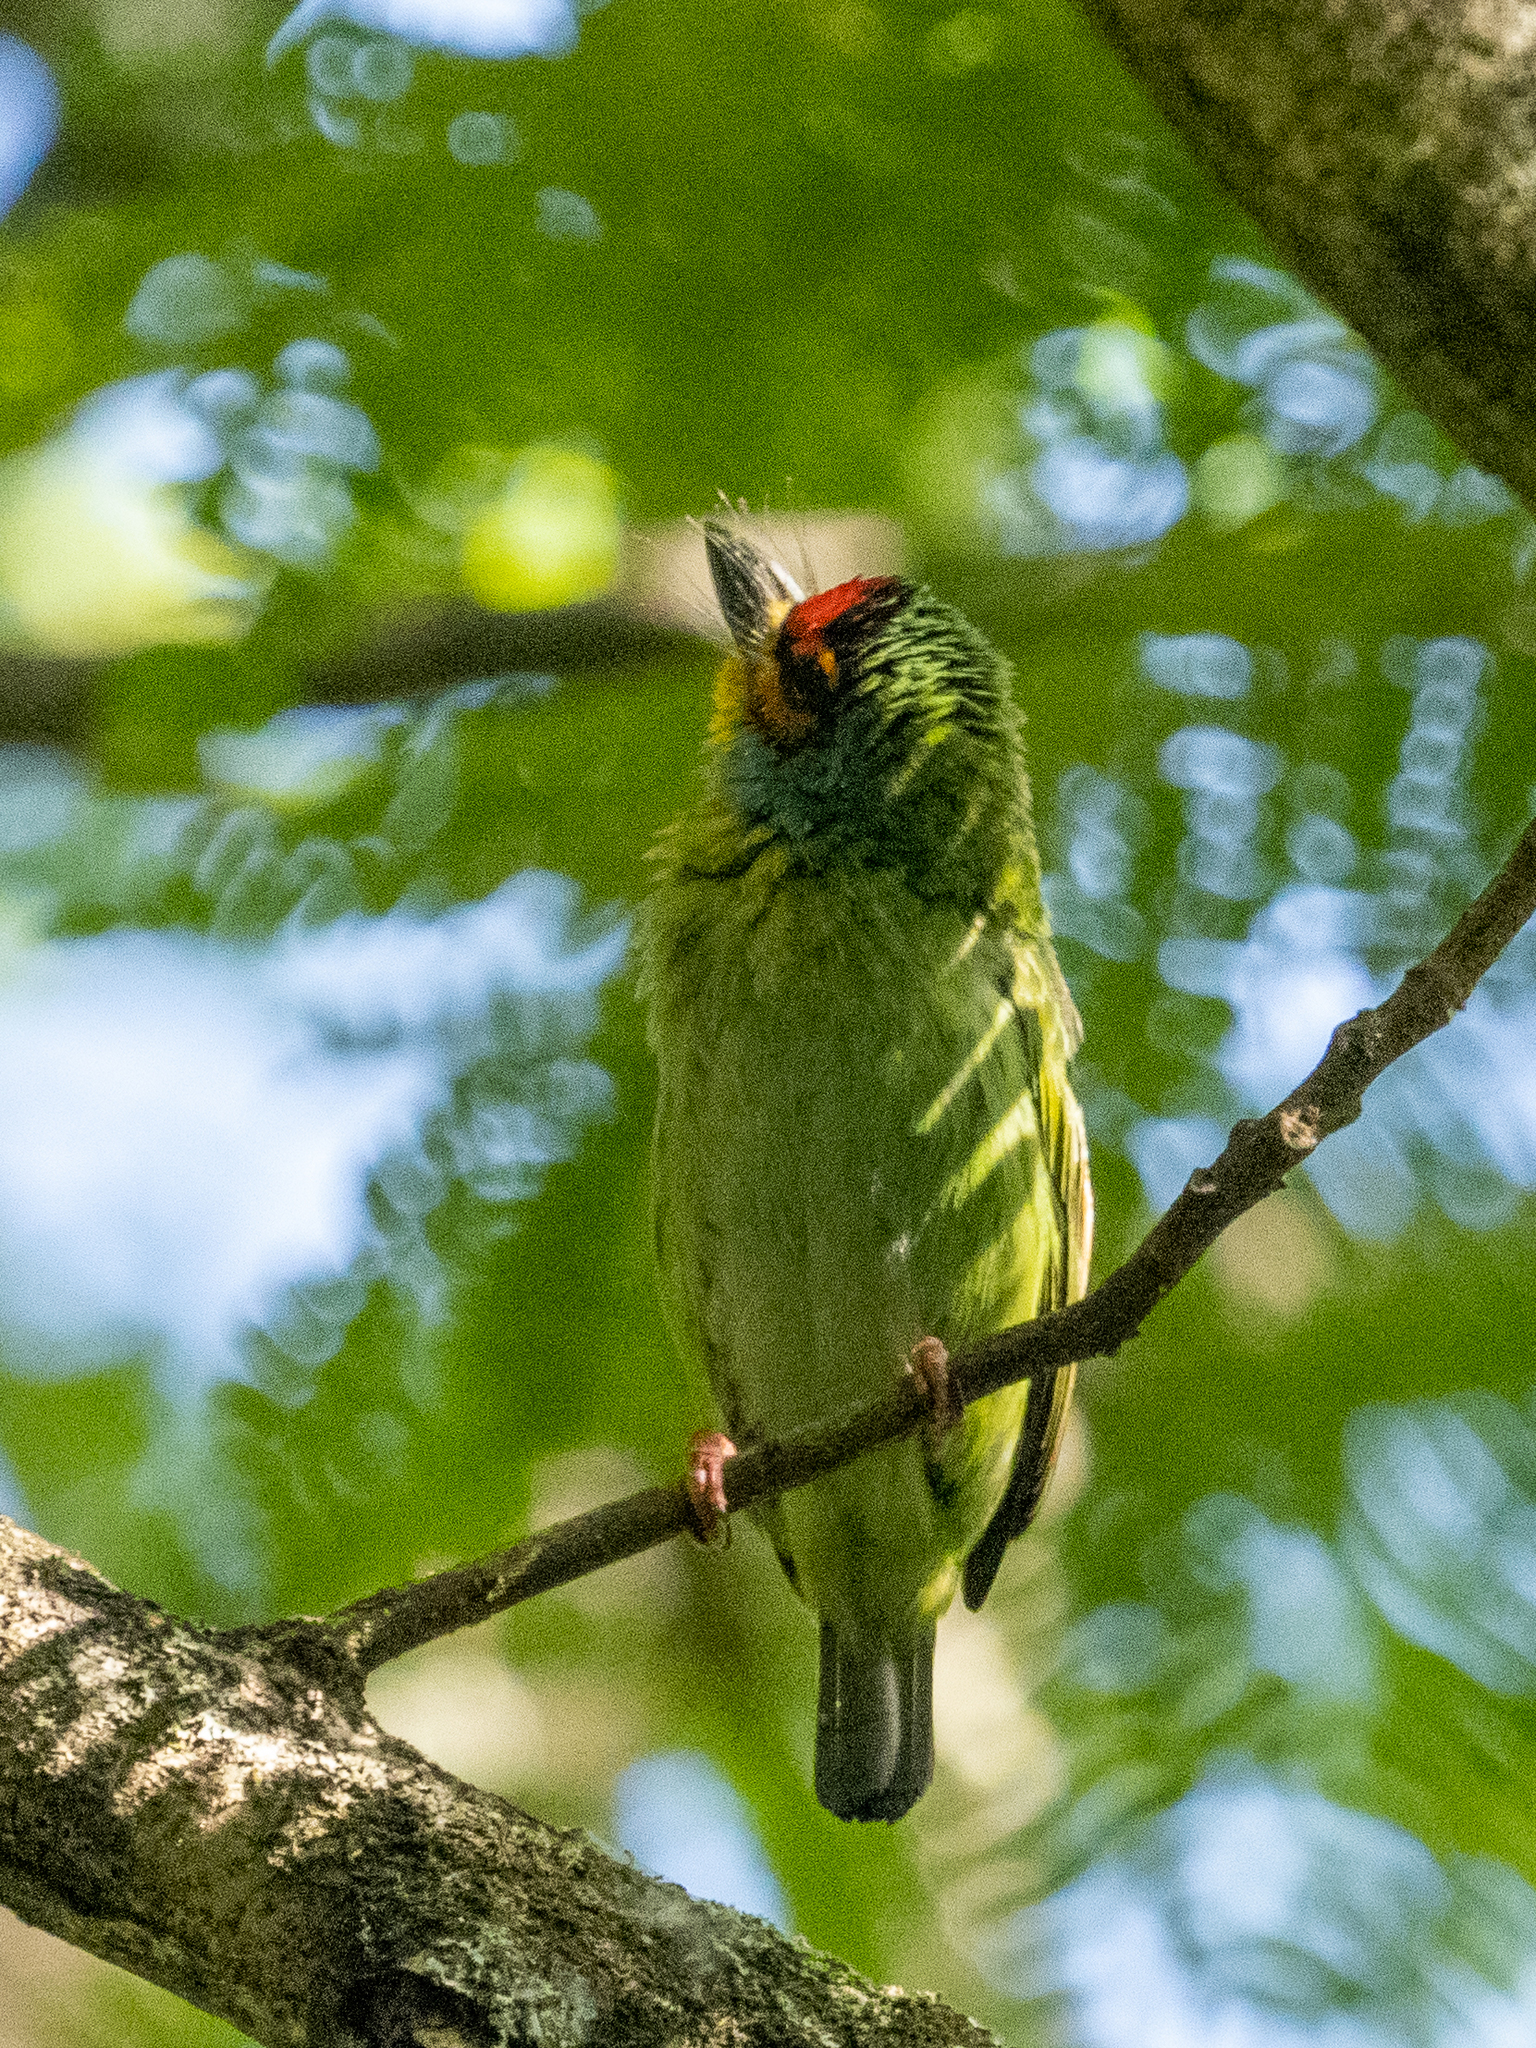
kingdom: Animalia
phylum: Chordata
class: Aves
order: Piciformes
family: Megalaimidae
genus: Psilopogon
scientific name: Psilopogon rubricapillus
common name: Crimson-fronted barbet
